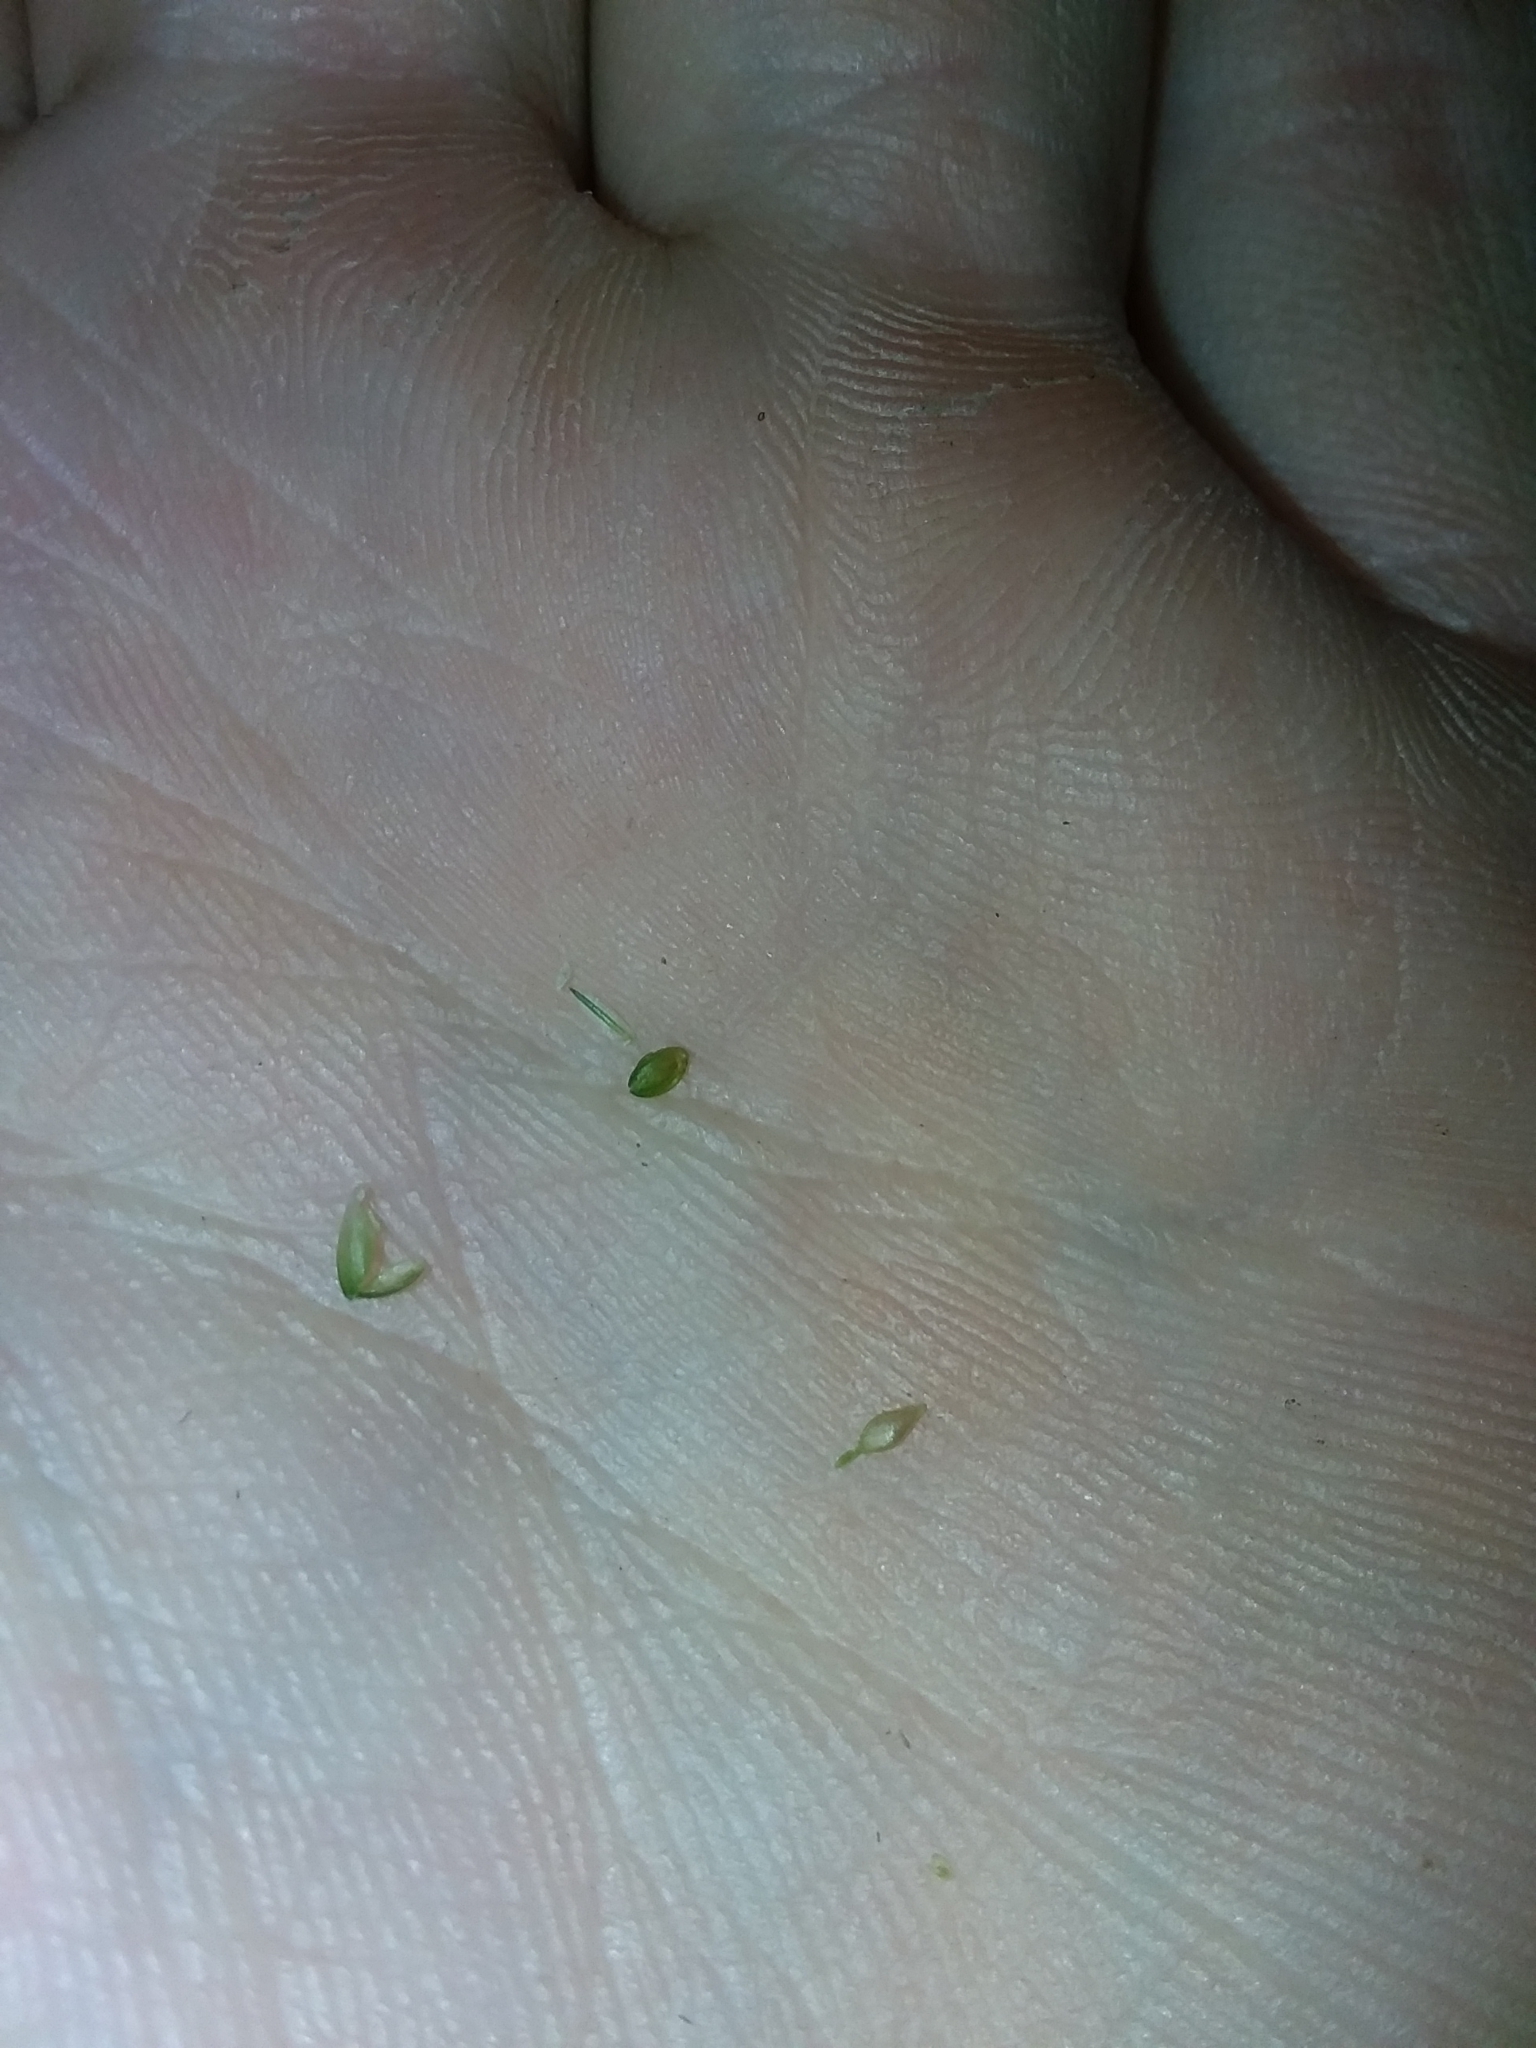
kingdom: Plantae
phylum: Tracheophyta
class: Liliopsida
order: Poales
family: Cyperaceae
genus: Carex
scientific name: Carex complanata
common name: Hirsute sedge
